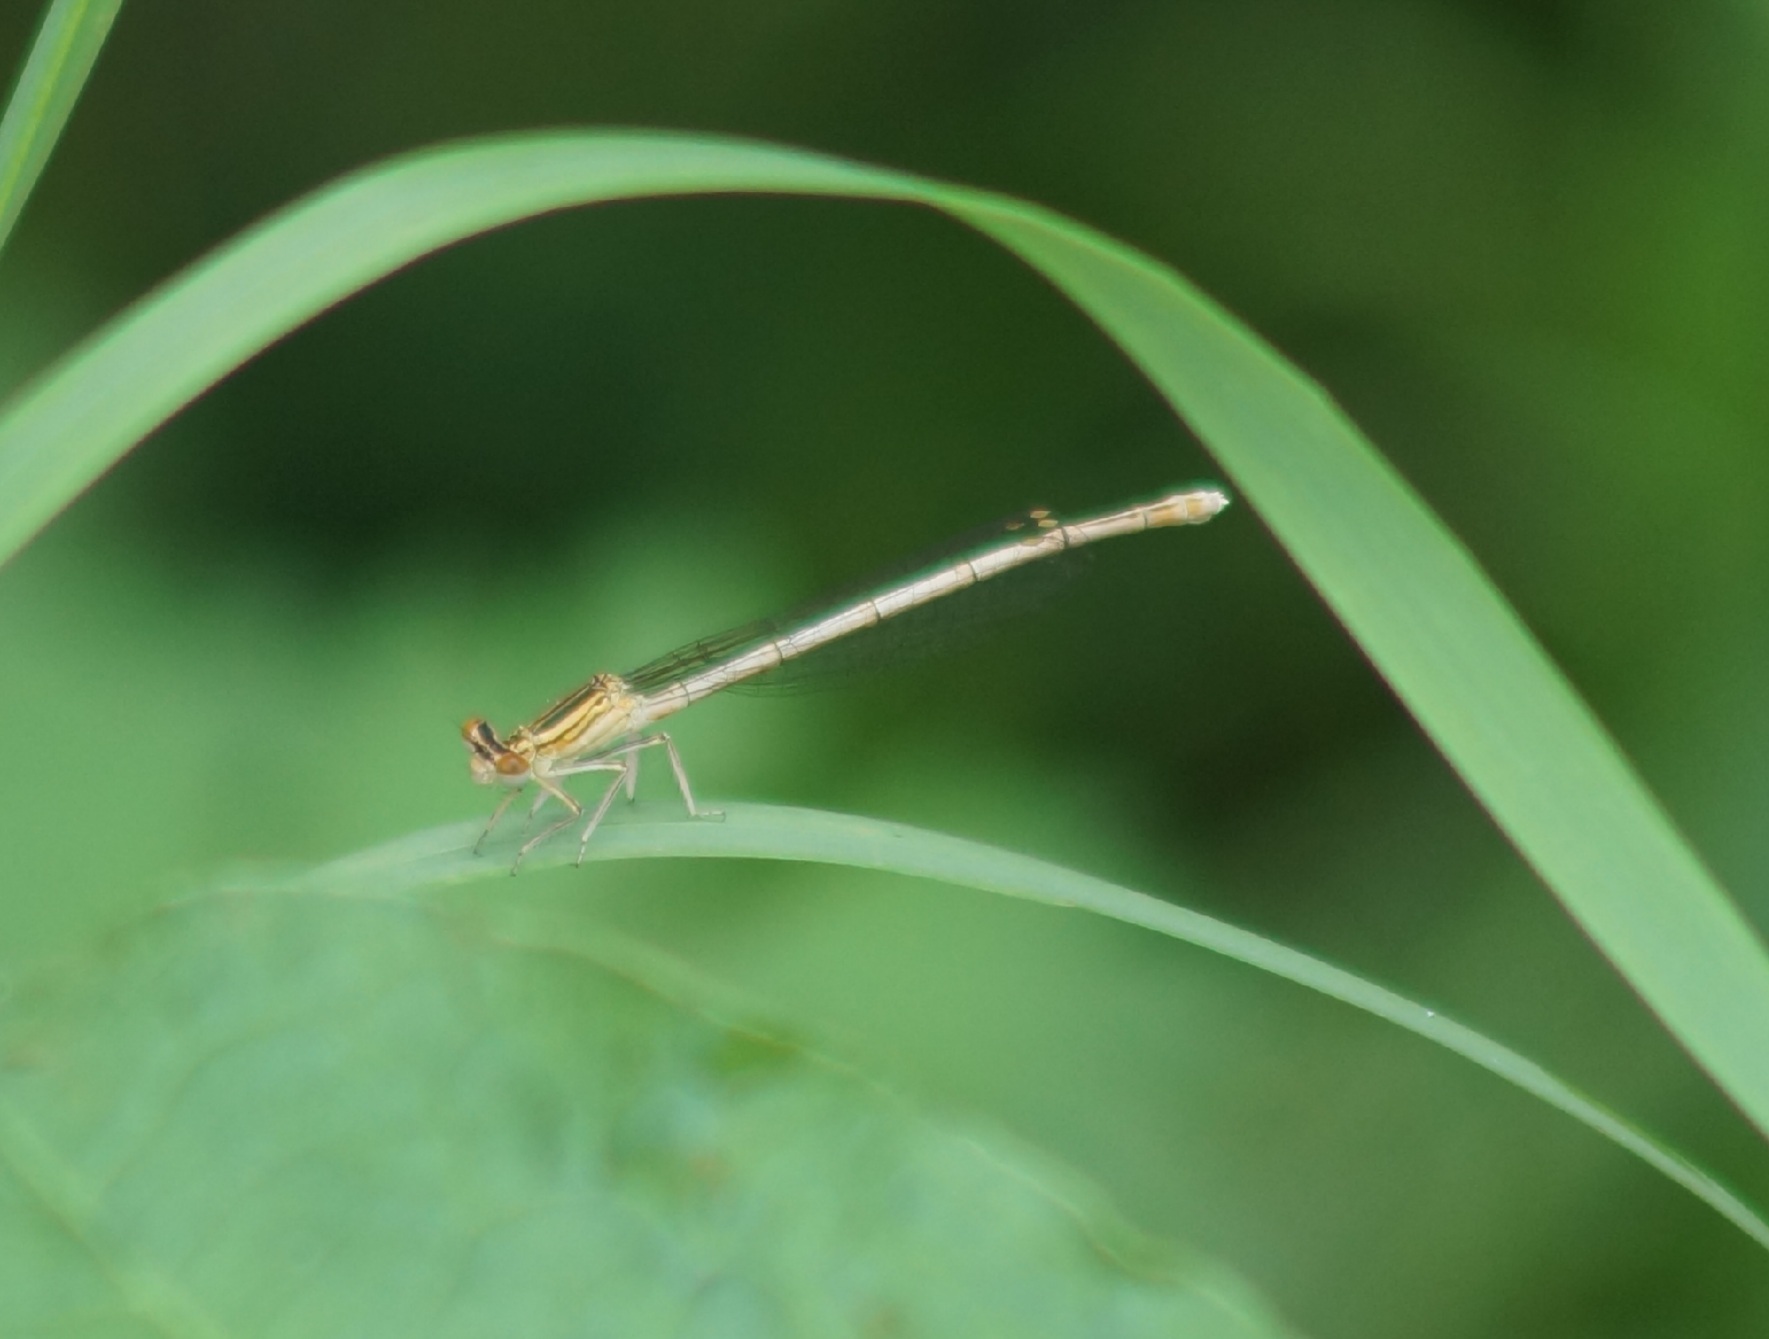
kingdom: Animalia
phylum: Arthropoda
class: Insecta
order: Odonata
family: Platycnemididae
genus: Platycnemis
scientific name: Platycnemis pennipes
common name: White-legged damselfly
